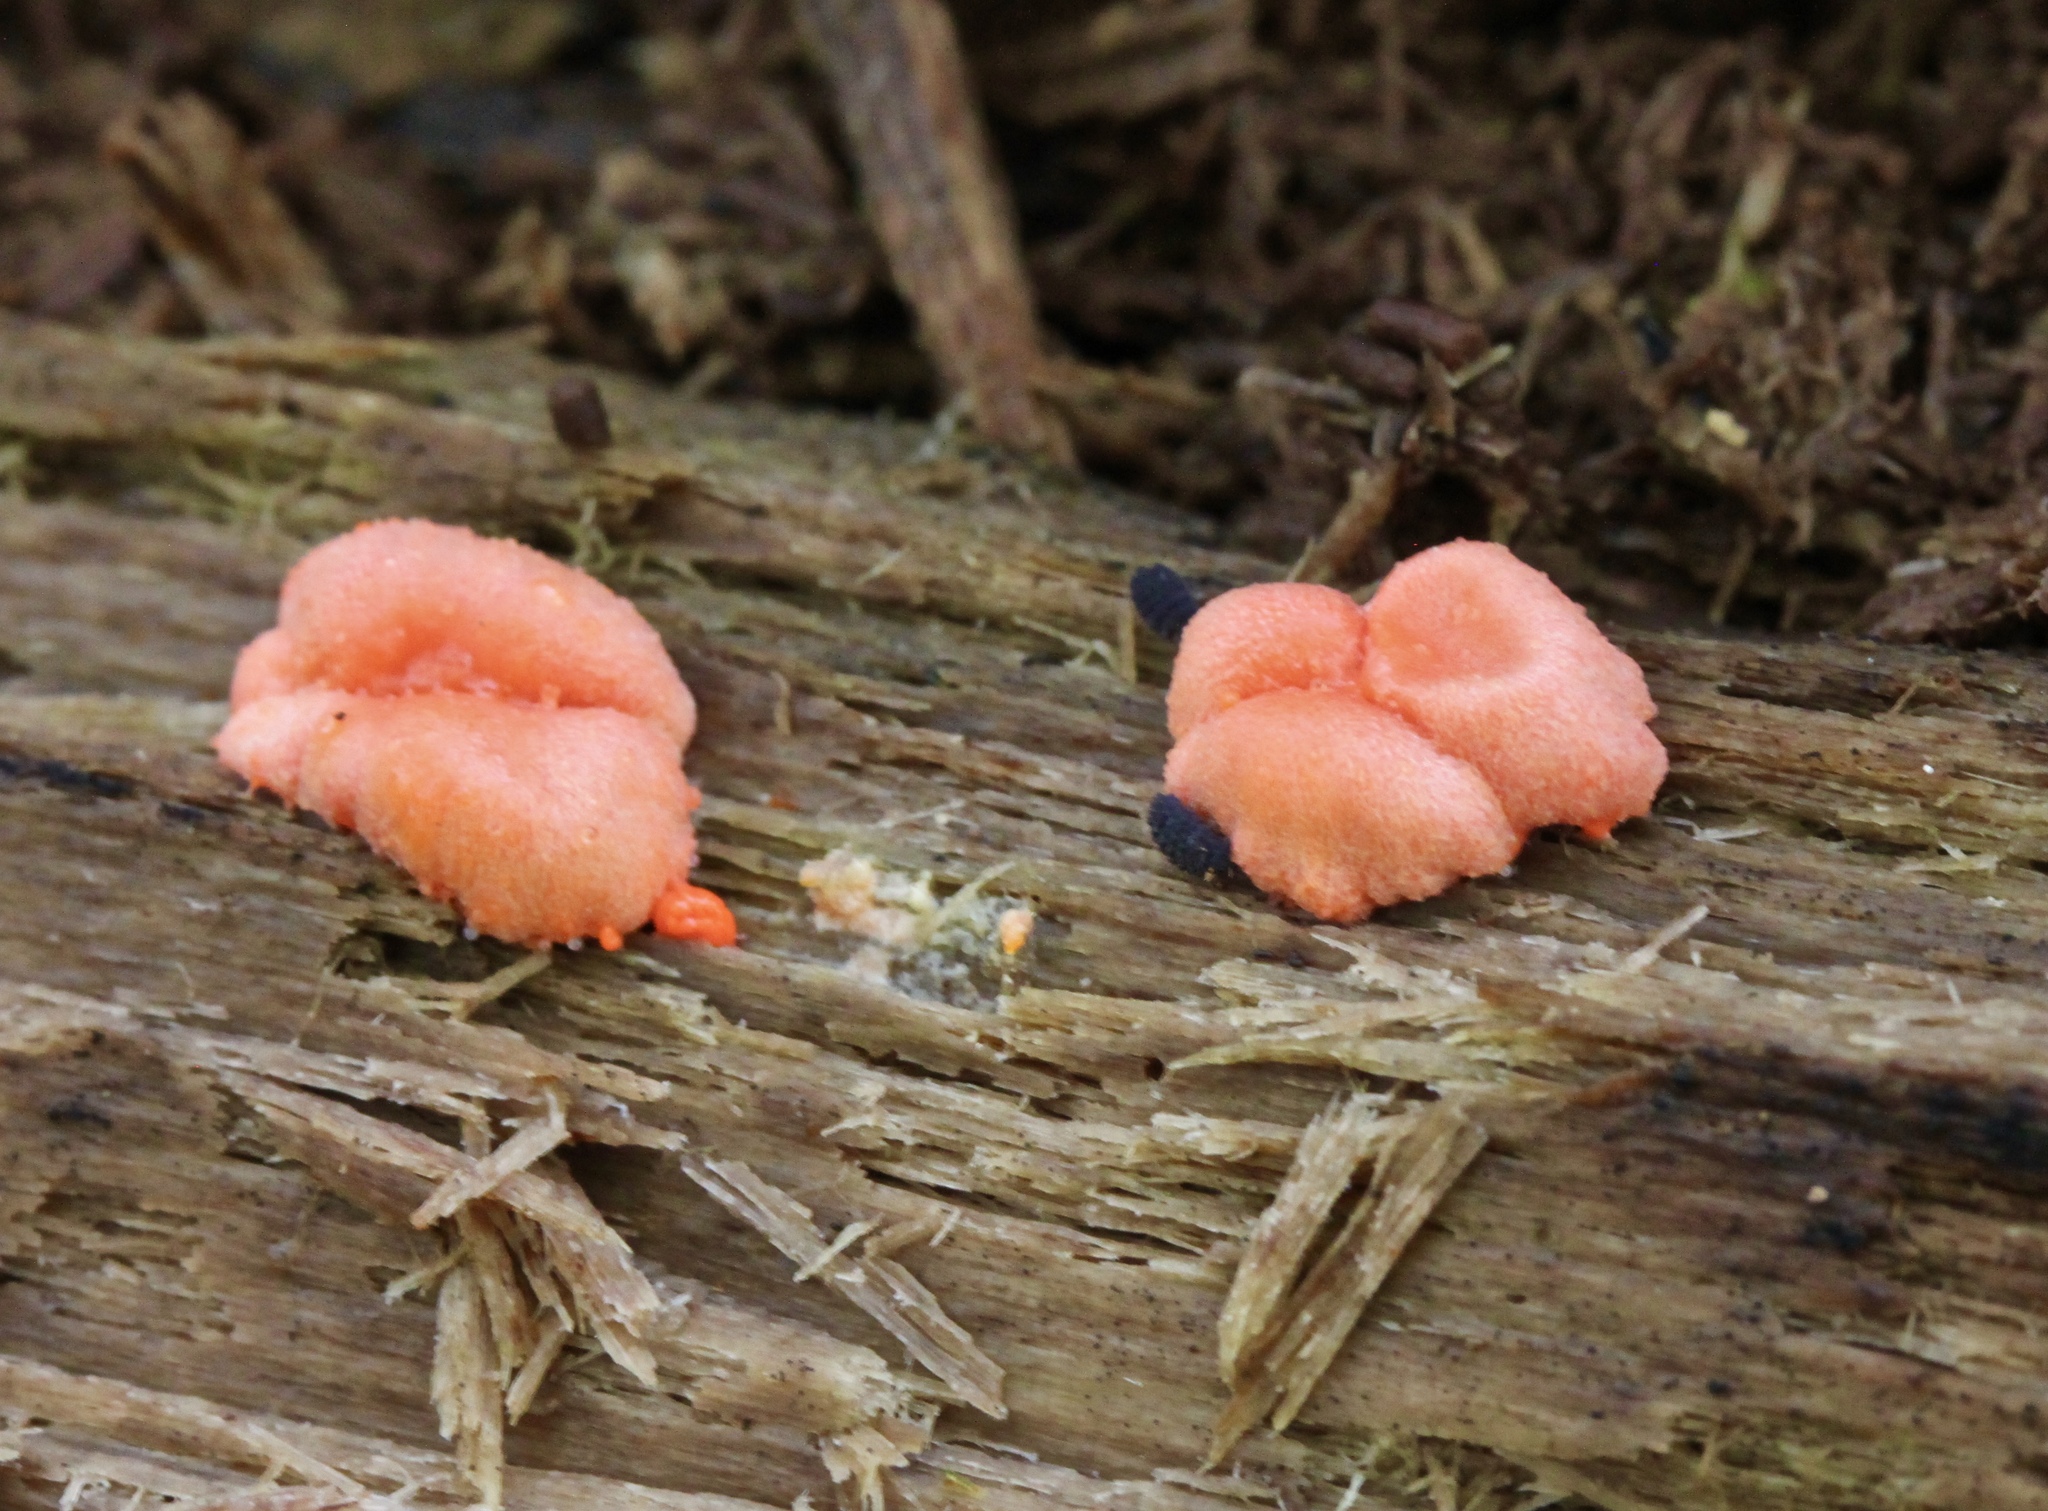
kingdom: Protozoa
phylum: Mycetozoa
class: Myxomycetes
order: Cribrariales
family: Tubiferaceae
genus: Lycogala
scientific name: Lycogala epidendrum
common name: Wolf's milk
